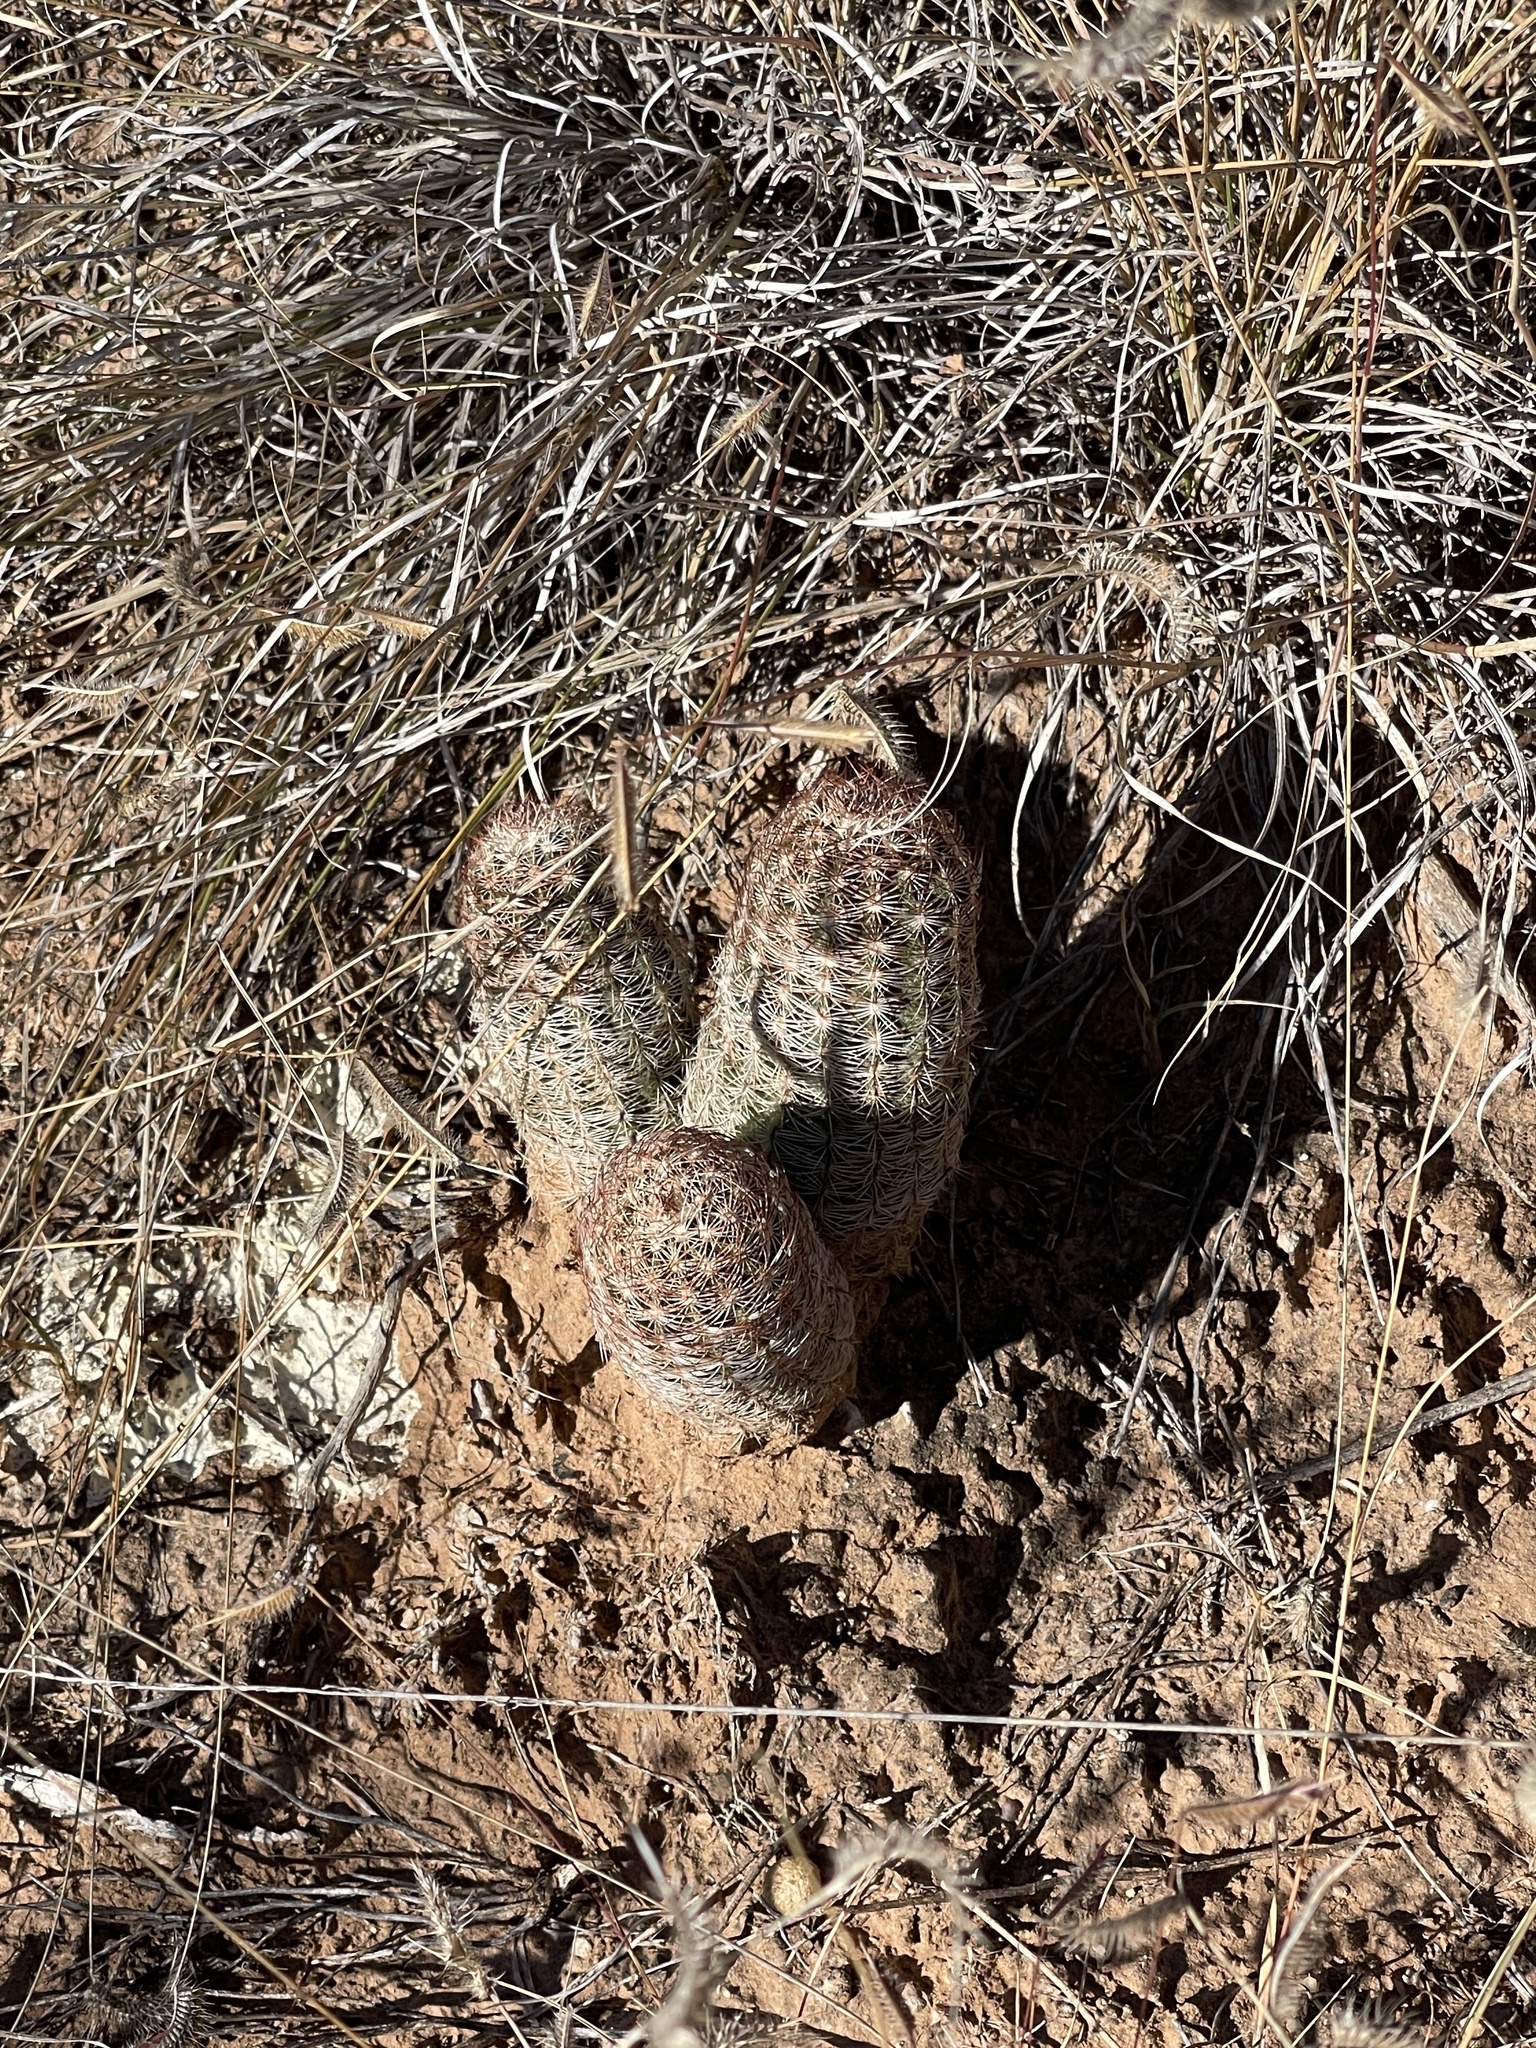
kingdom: Plantae
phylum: Tracheophyta
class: Magnoliopsida
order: Caryophyllales
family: Cactaceae
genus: Echinocereus
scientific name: Echinocereus reichenbachii
